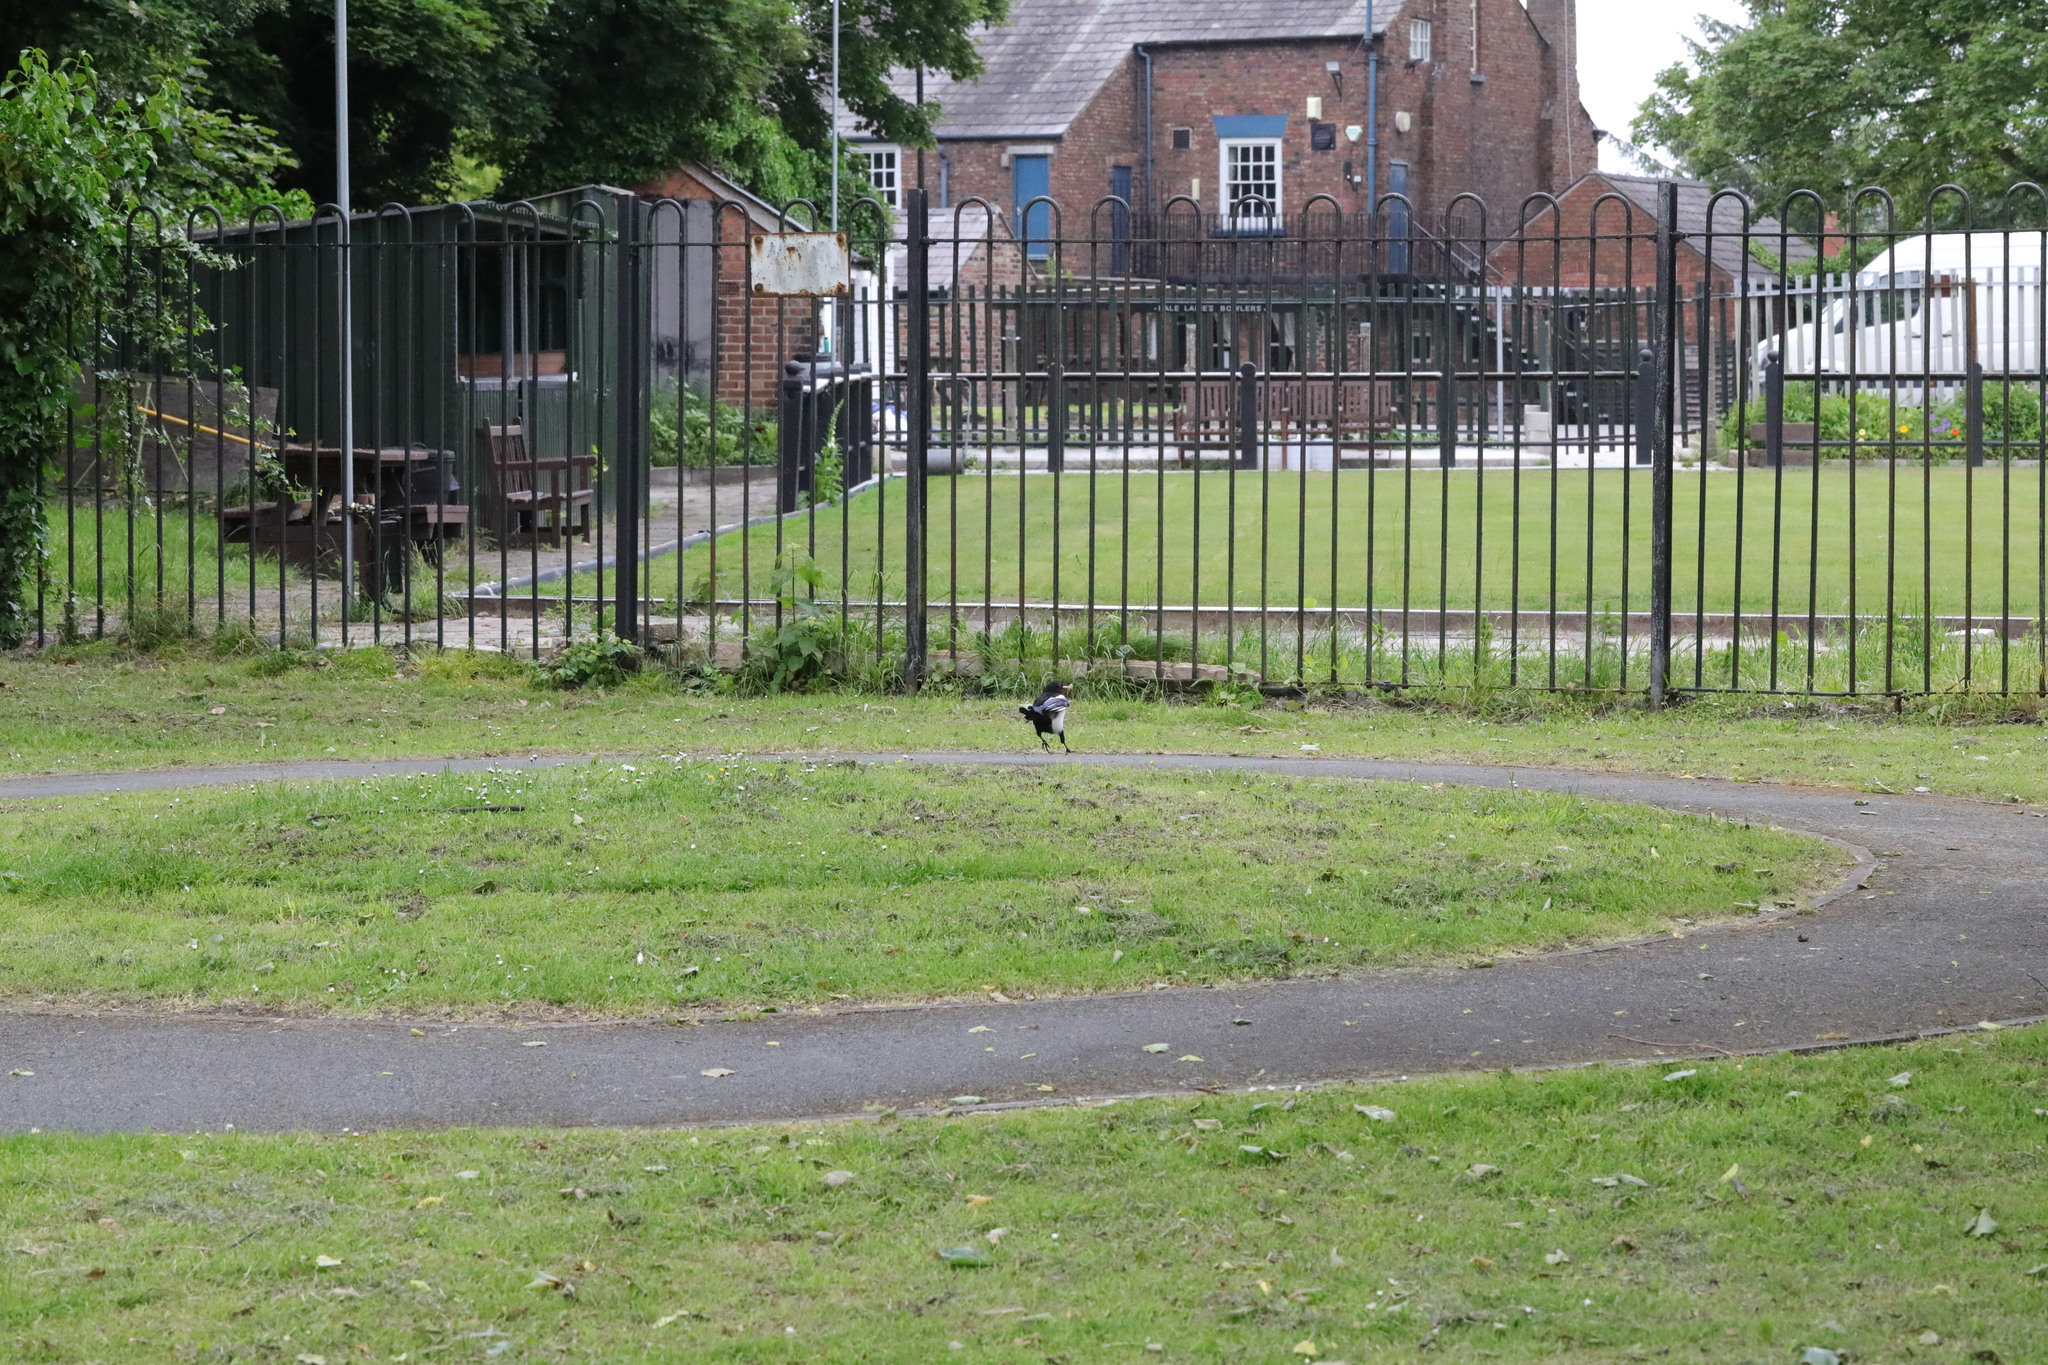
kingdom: Animalia
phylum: Chordata
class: Aves
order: Passeriformes
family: Corvidae
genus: Pica
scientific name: Pica pica
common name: Eurasian magpie
